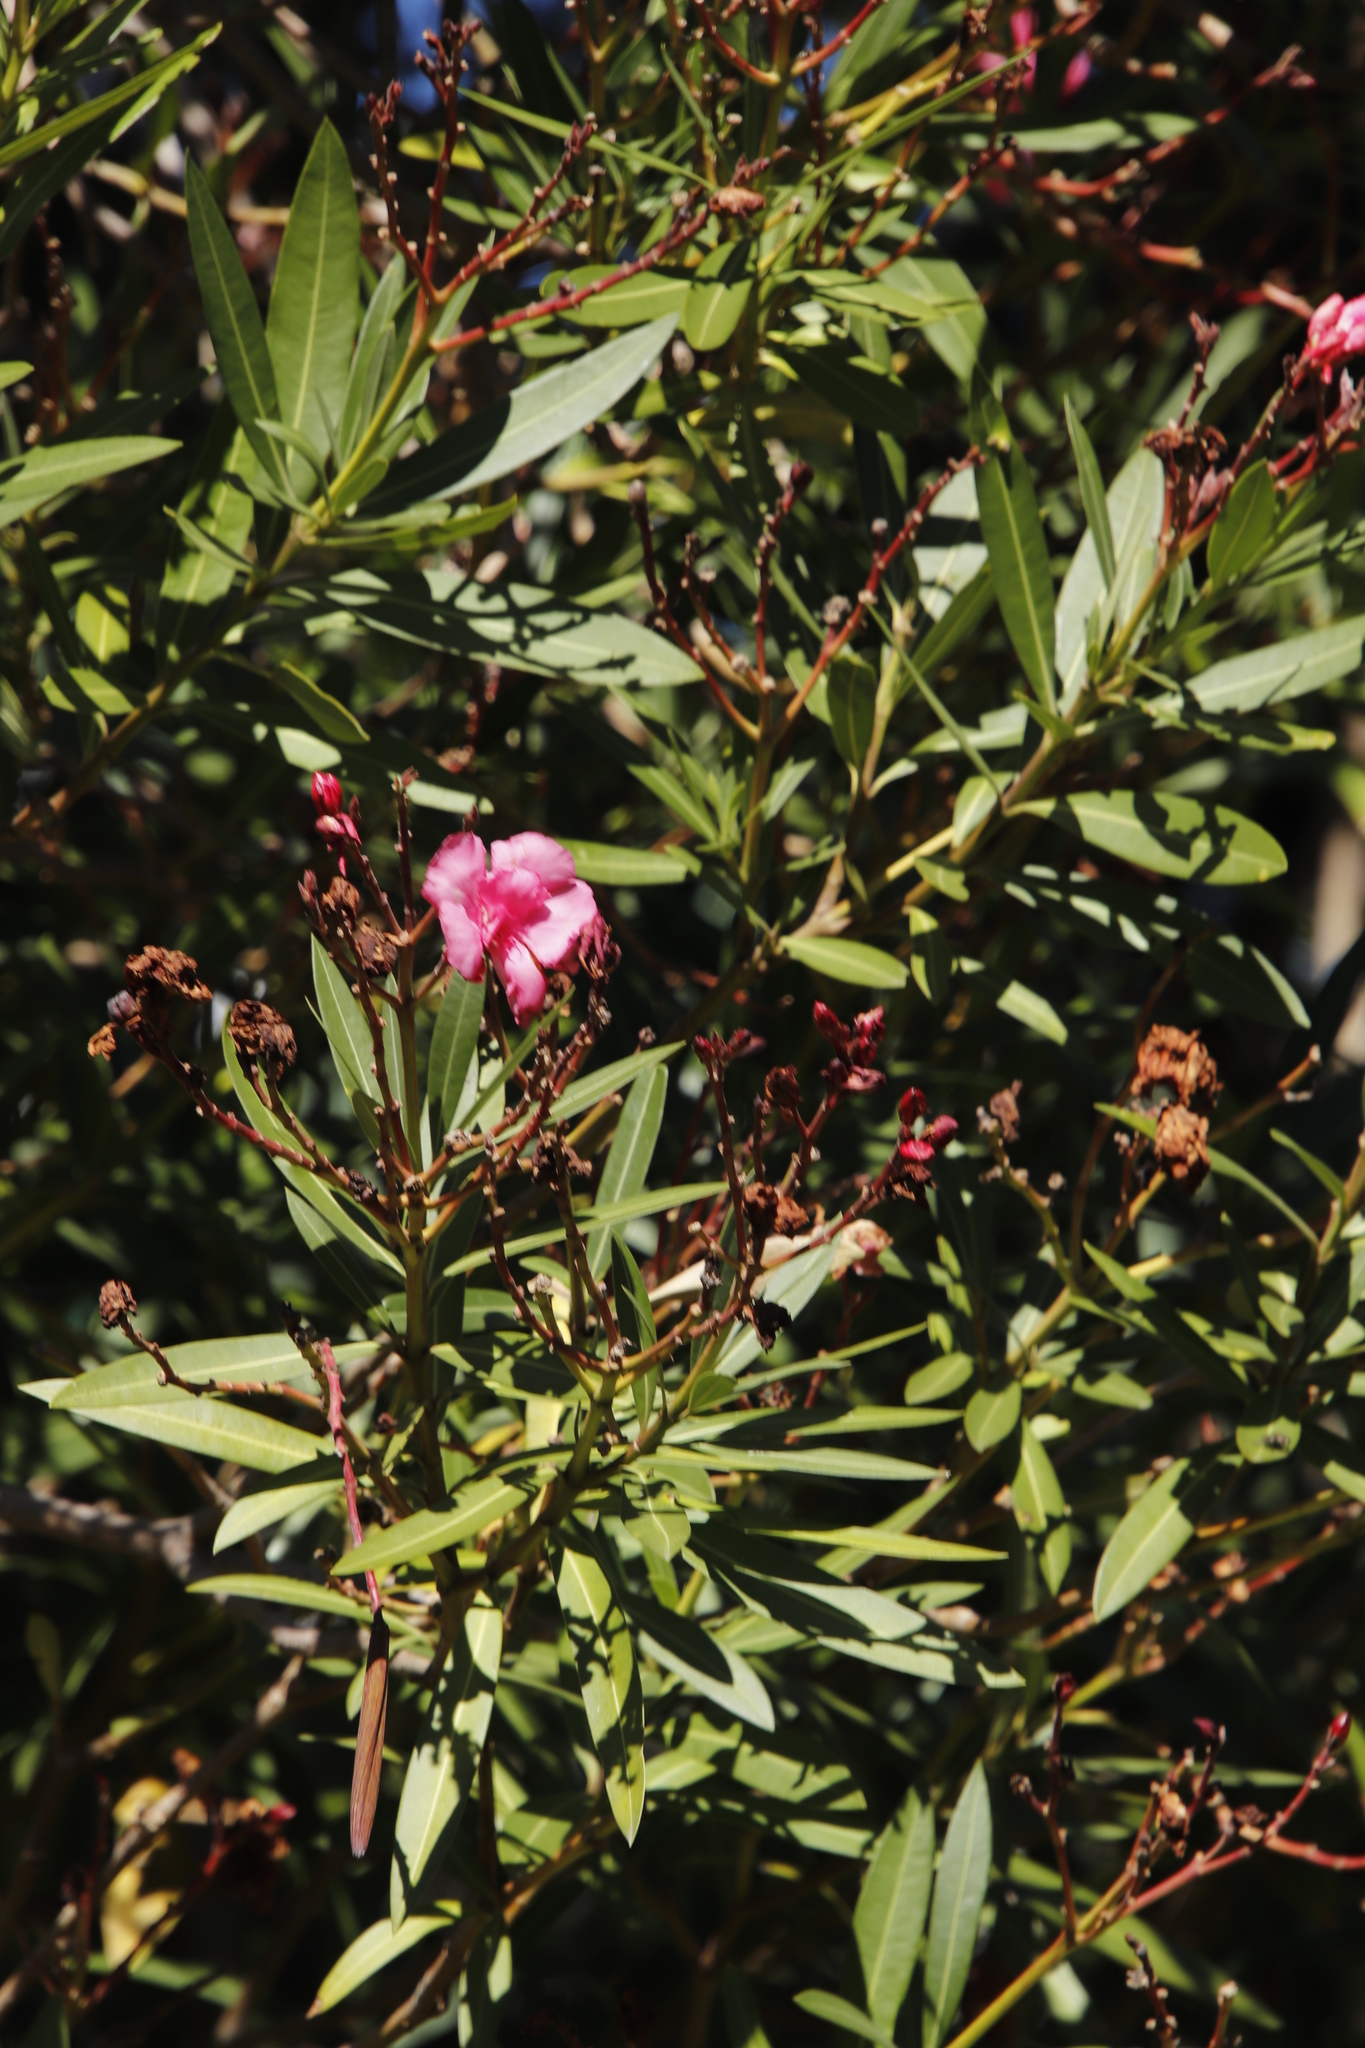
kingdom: Plantae
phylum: Tracheophyta
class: Magnoliopsida
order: Gentianales
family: Apocynaceae
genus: Nerium
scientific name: Nerium oleander
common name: Oleander
